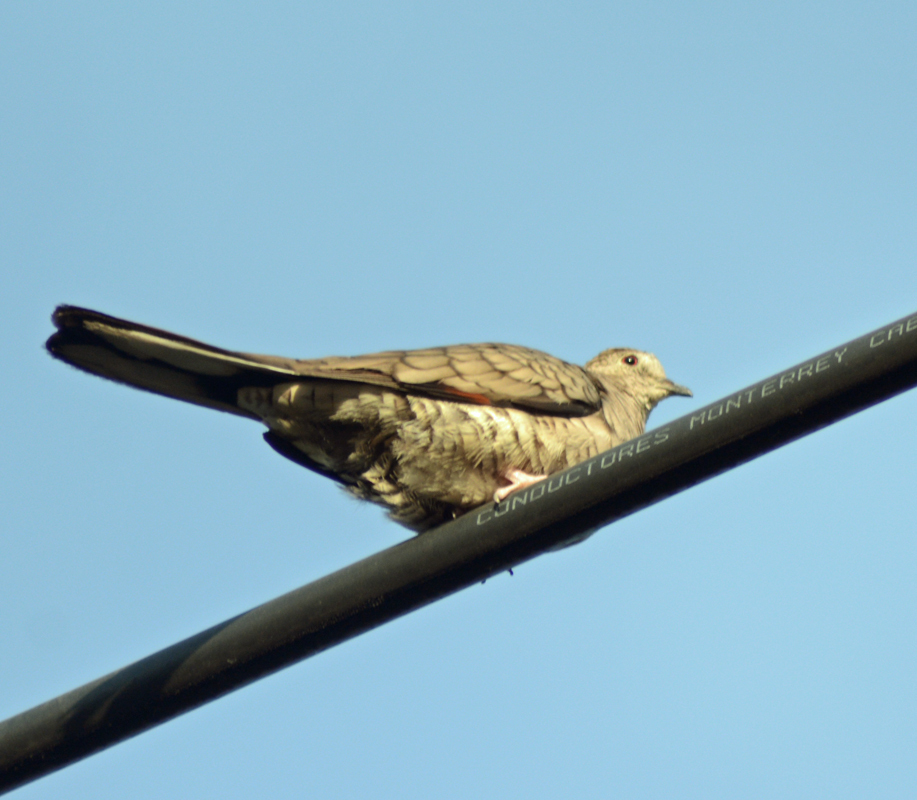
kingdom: Animalia
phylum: Chordata
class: Aves
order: Columbiformes
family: Columbidae
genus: Columbina
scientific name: Columbina inca
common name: Inca dove
